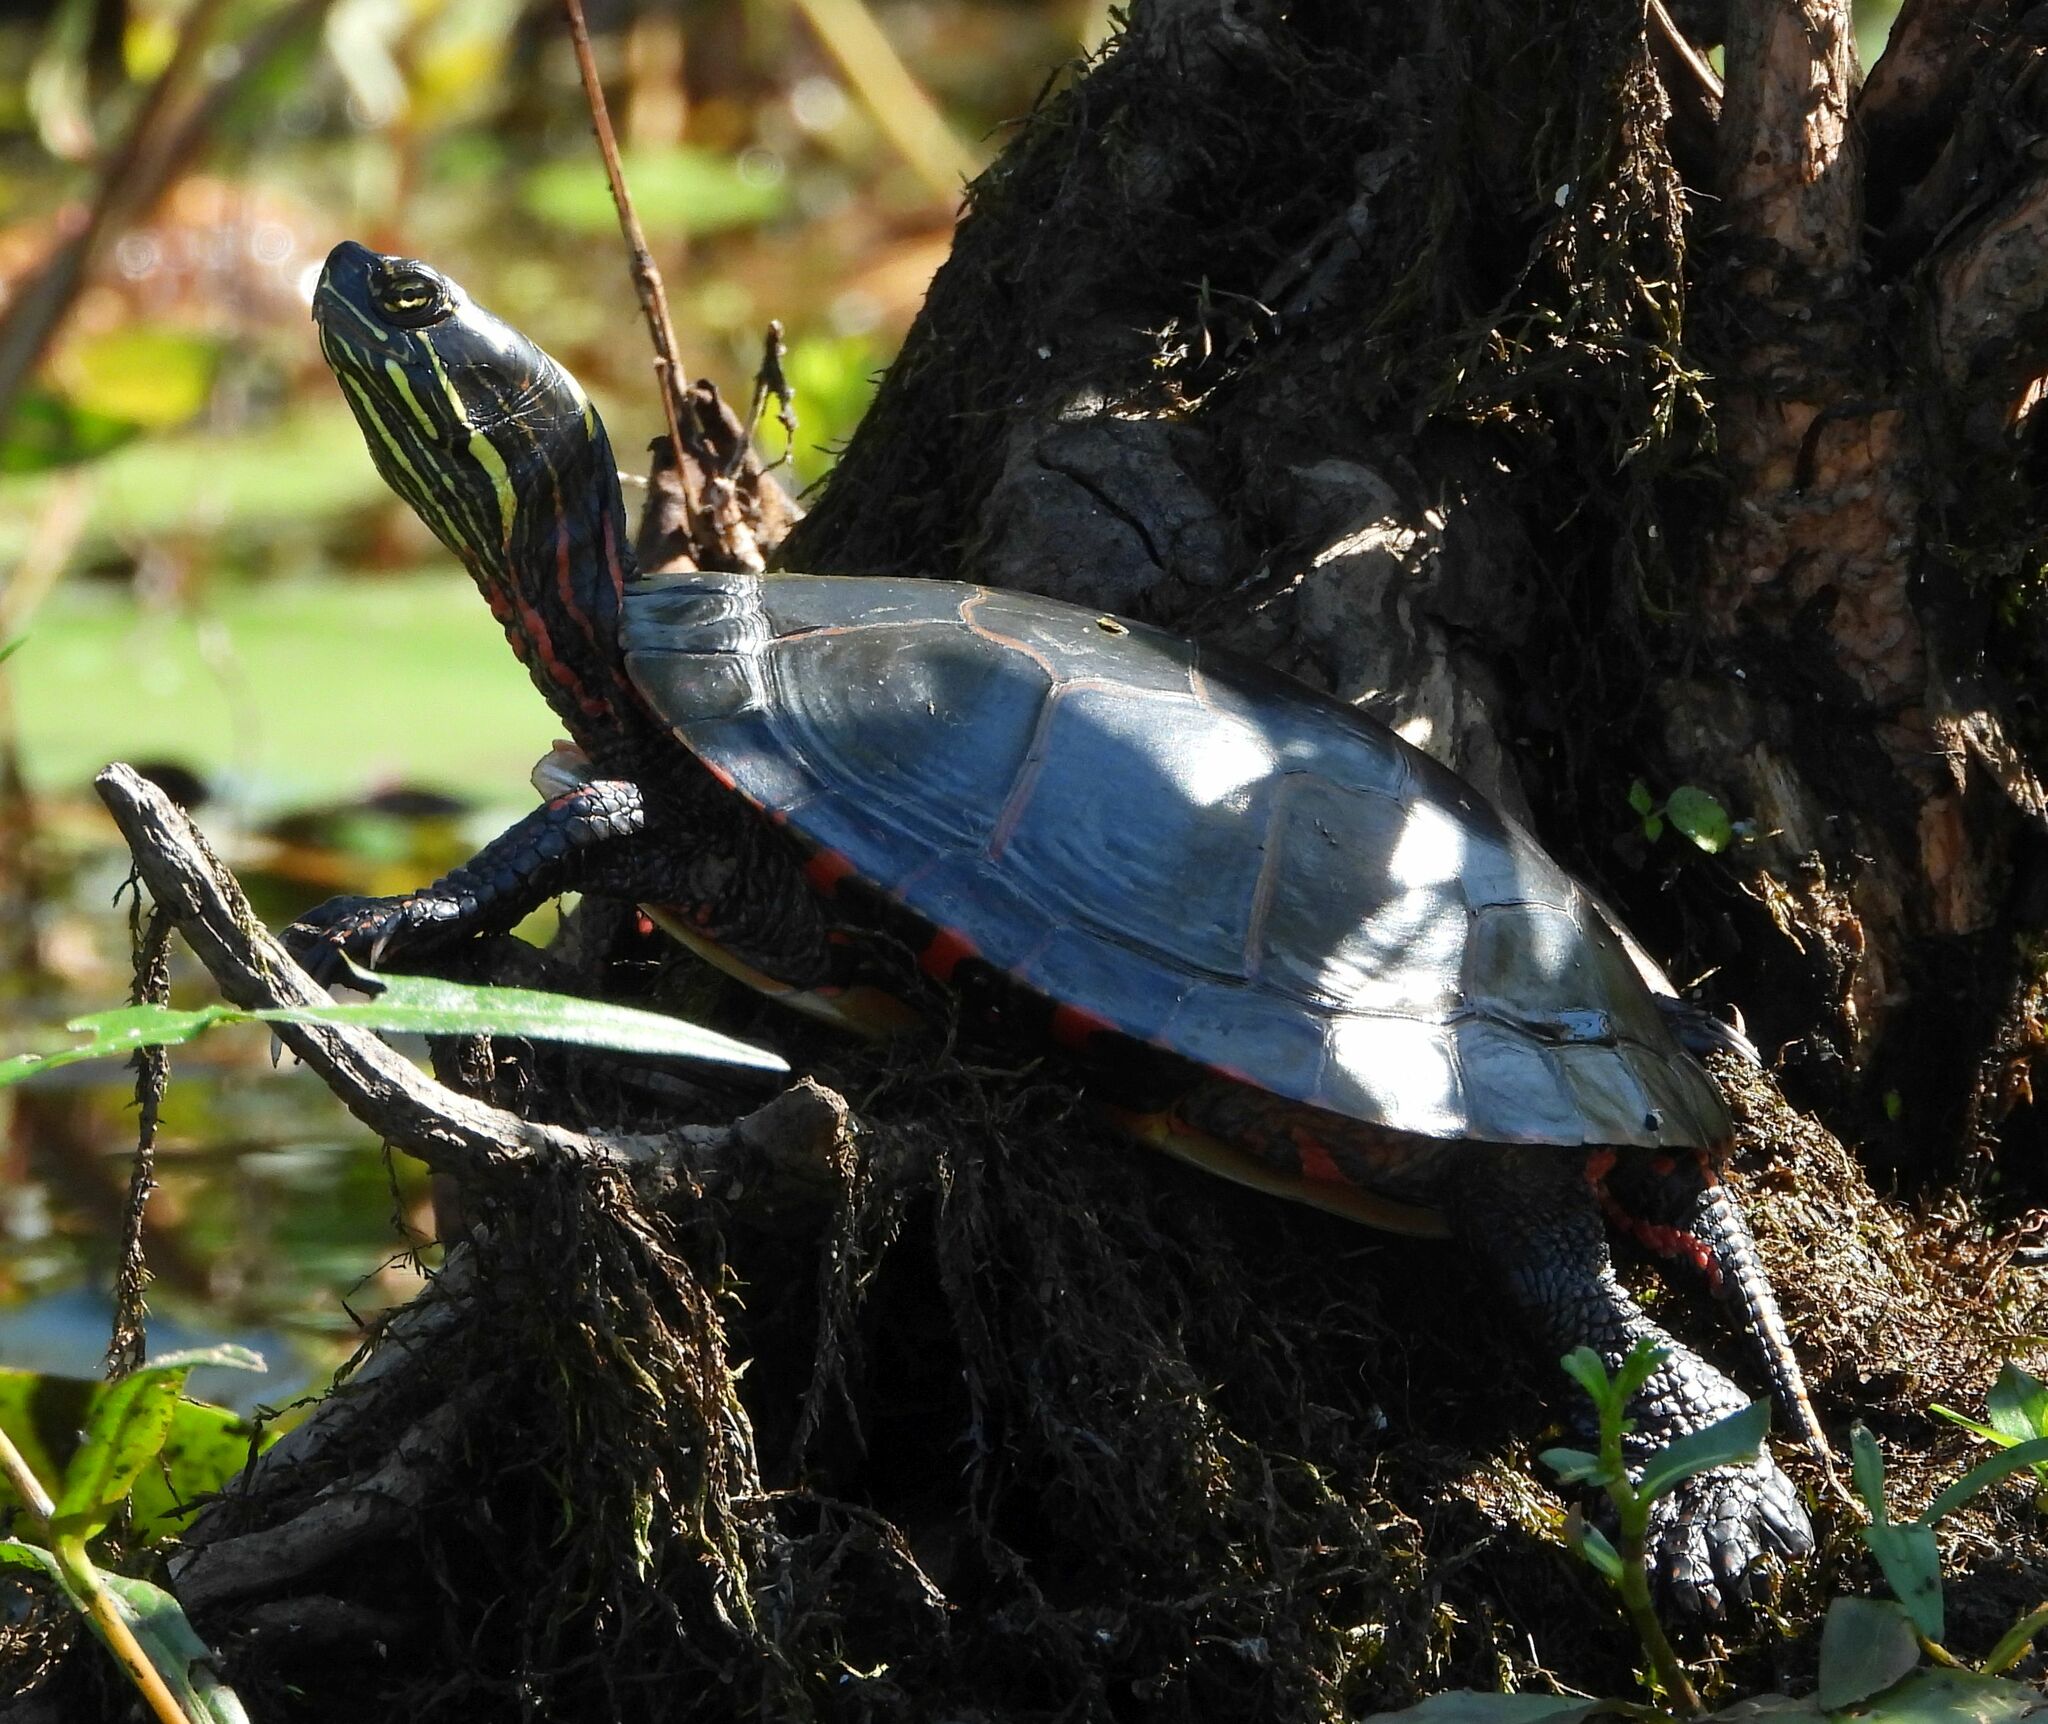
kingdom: Animalia
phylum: Chordata
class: Testudines
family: Emydidae
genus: Chrysemys
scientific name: Chrysemys picta
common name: Painted turtle
